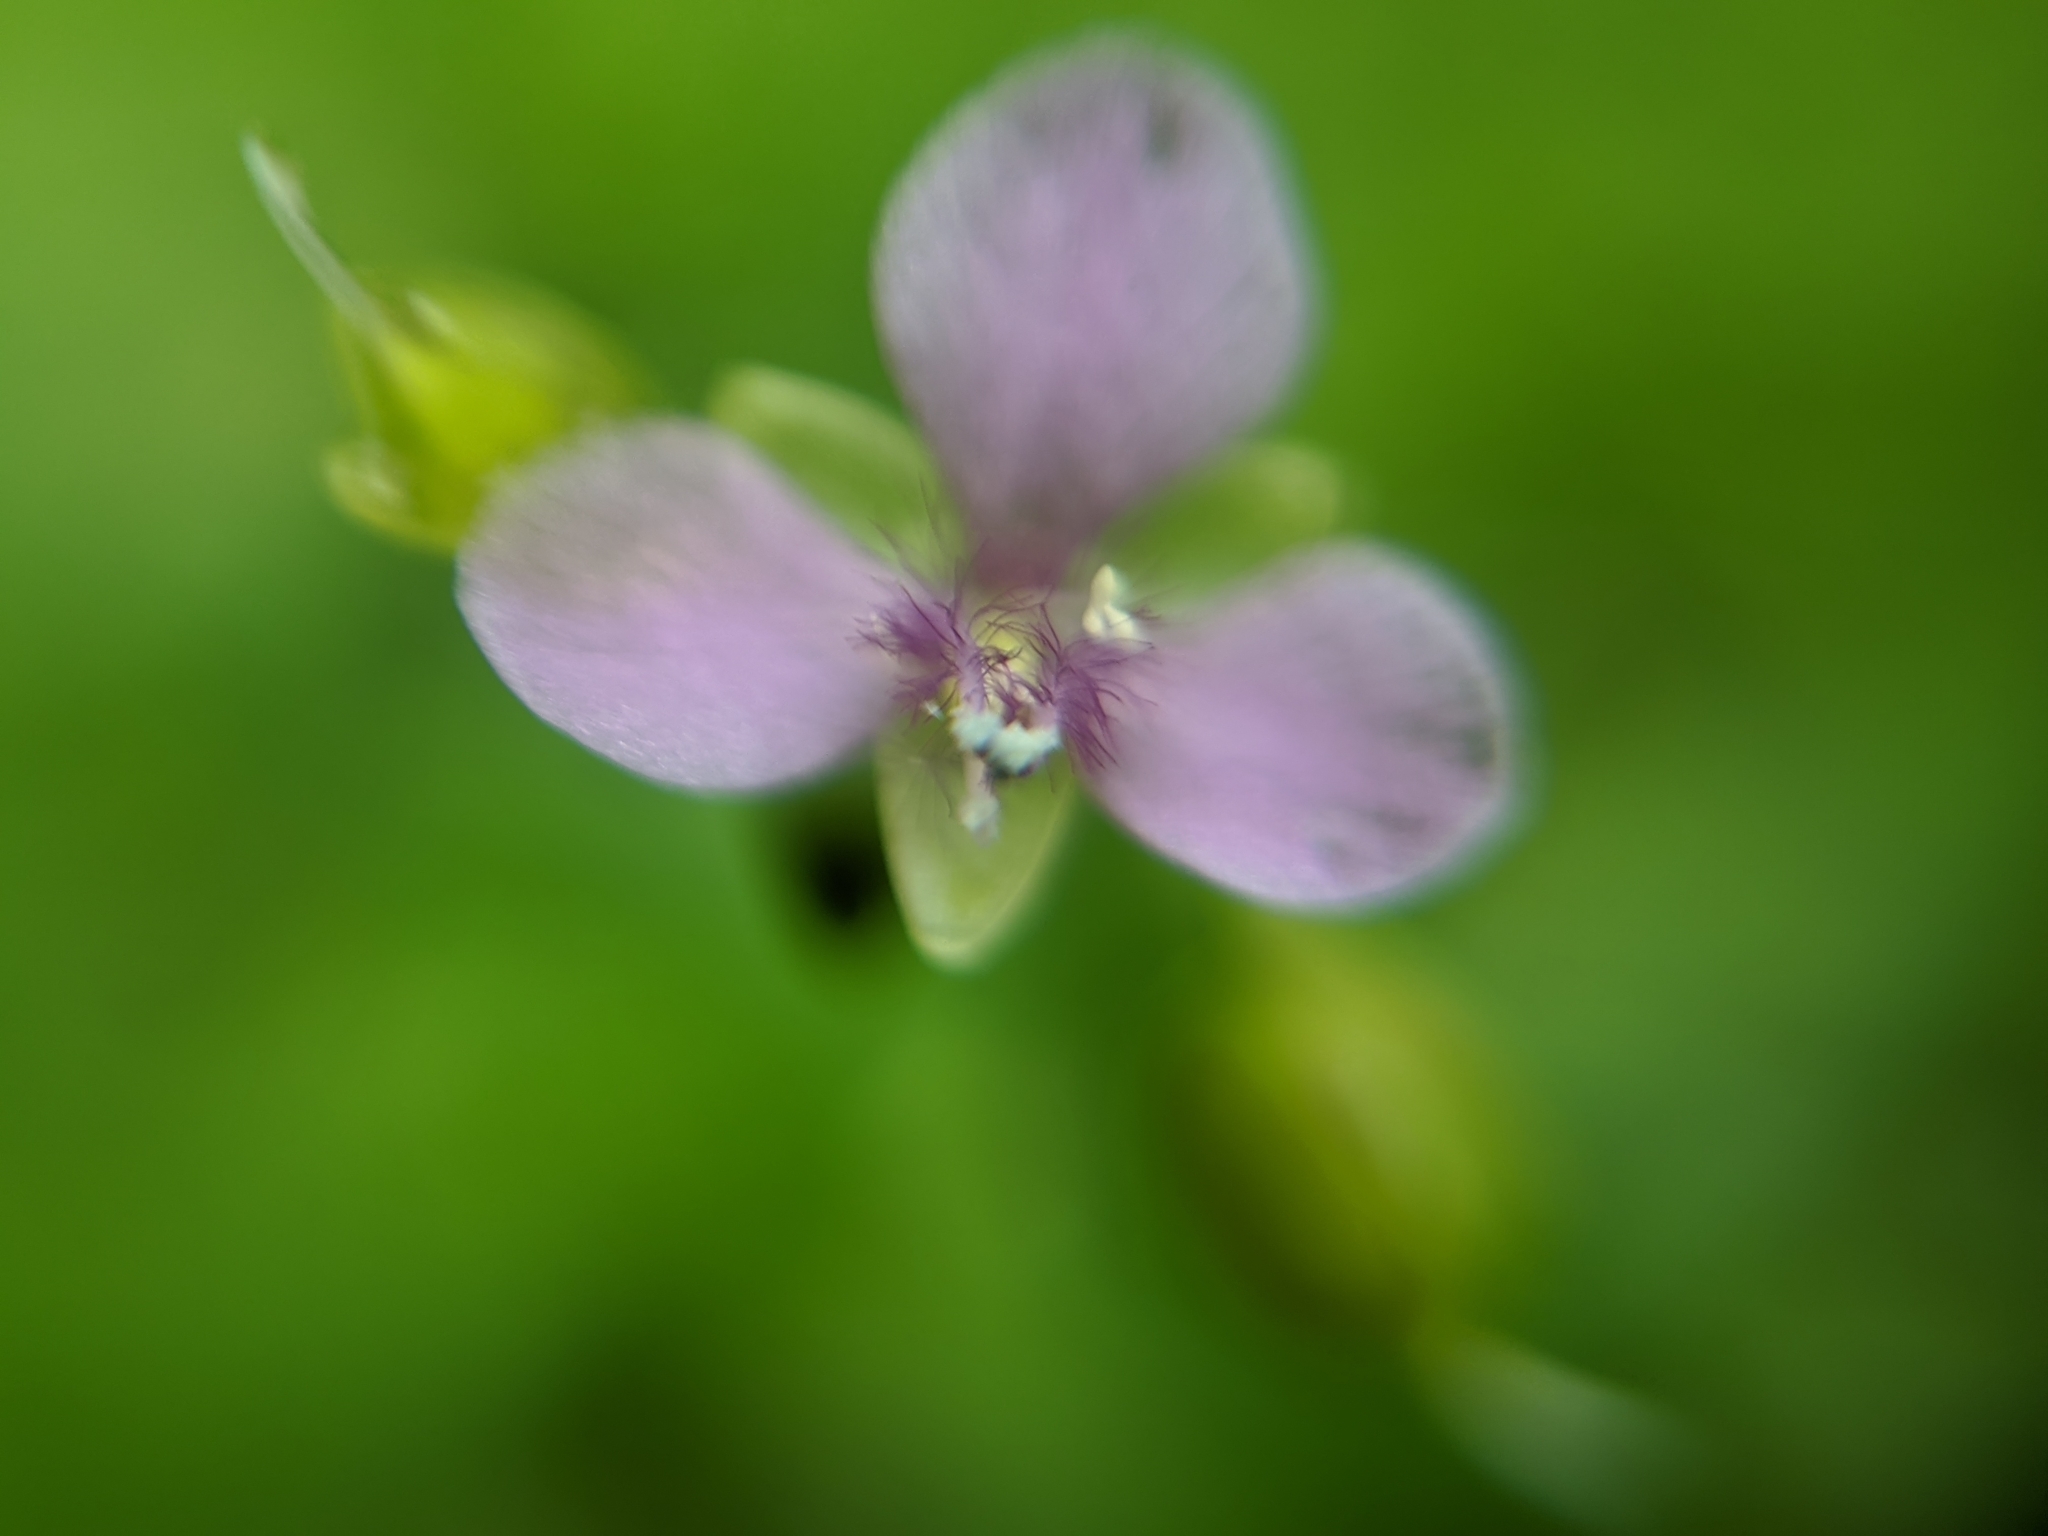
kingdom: Plantae
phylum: Tracheophyta
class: Liliopsida
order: Commelinales
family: Commelinaceae
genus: Murdannia
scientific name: Murdannia nudiflora
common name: Nakedstem dewflower
